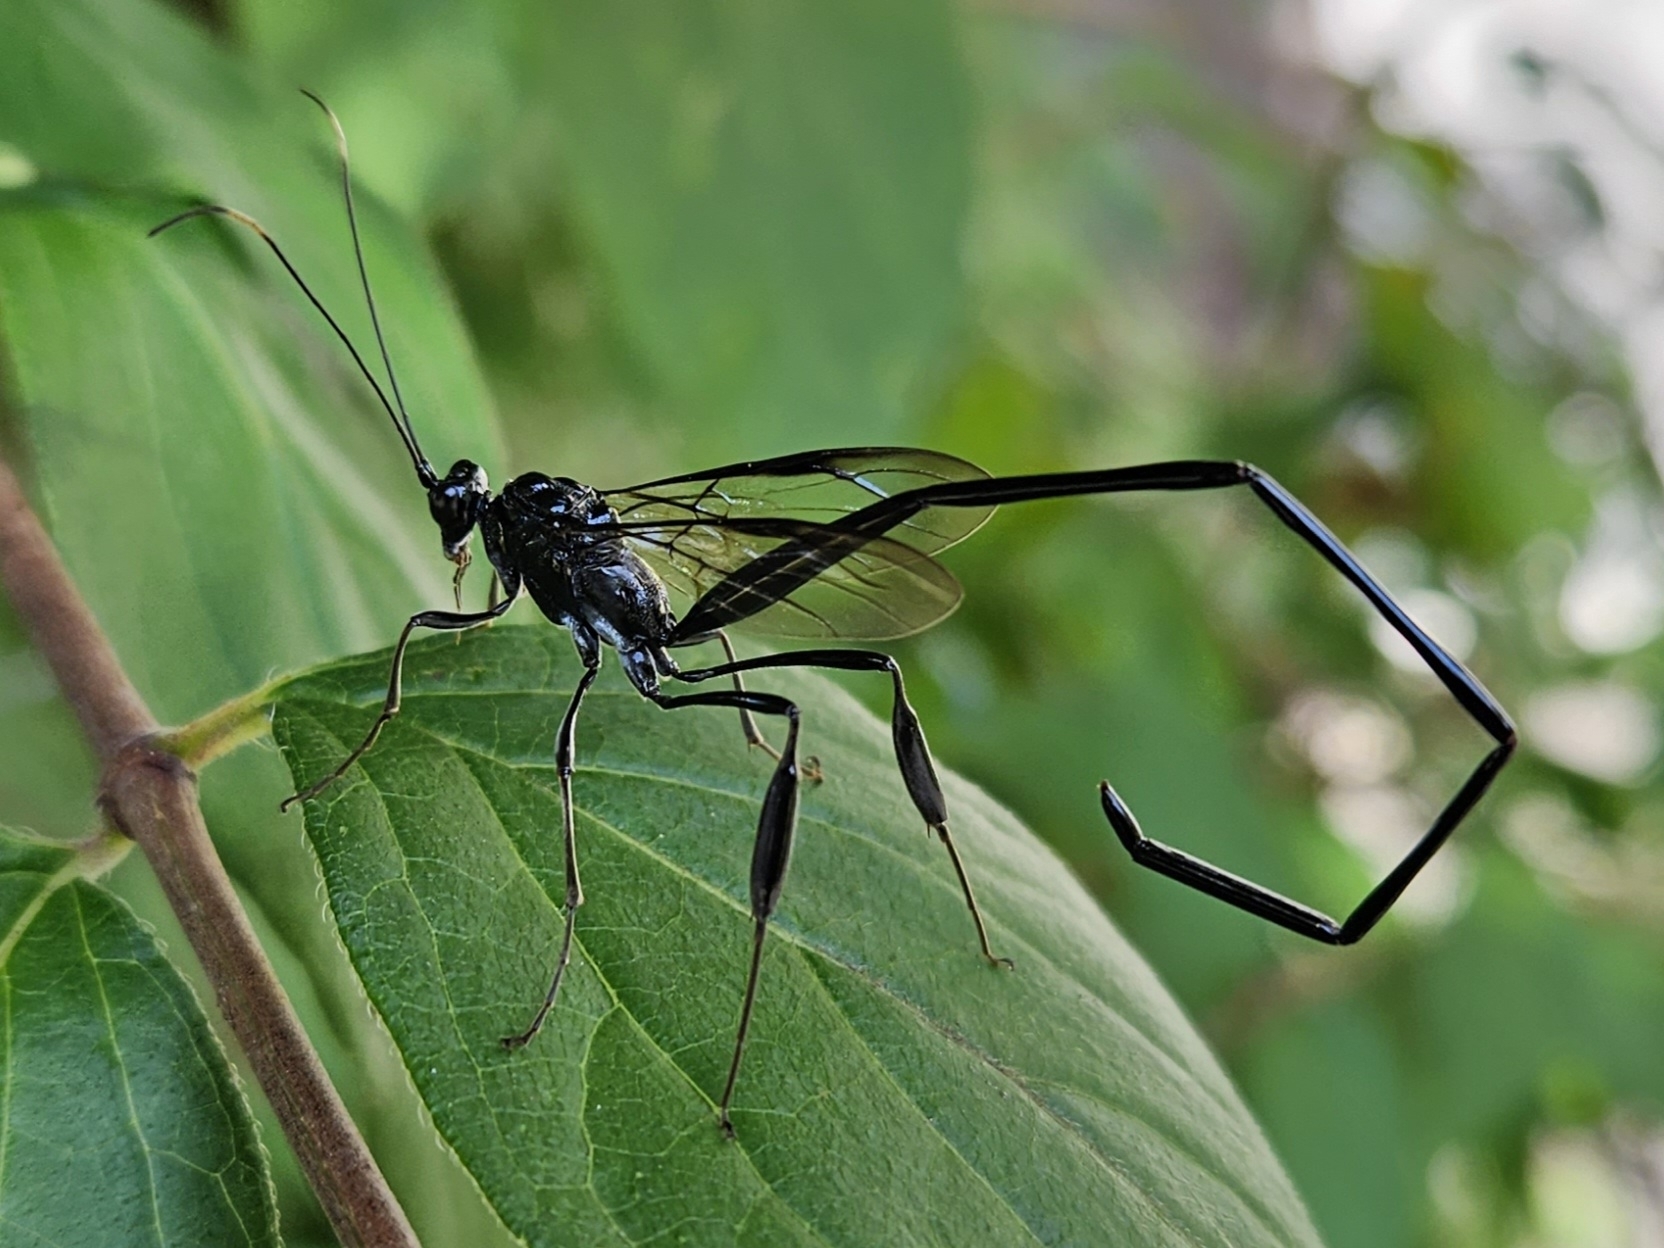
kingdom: Animalia
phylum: Arthropoda
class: Insecta
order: Hymenoptera
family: Pelecinidae
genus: Pelecinus
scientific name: Pelecinus polyturator
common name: American pelecinid wasp
